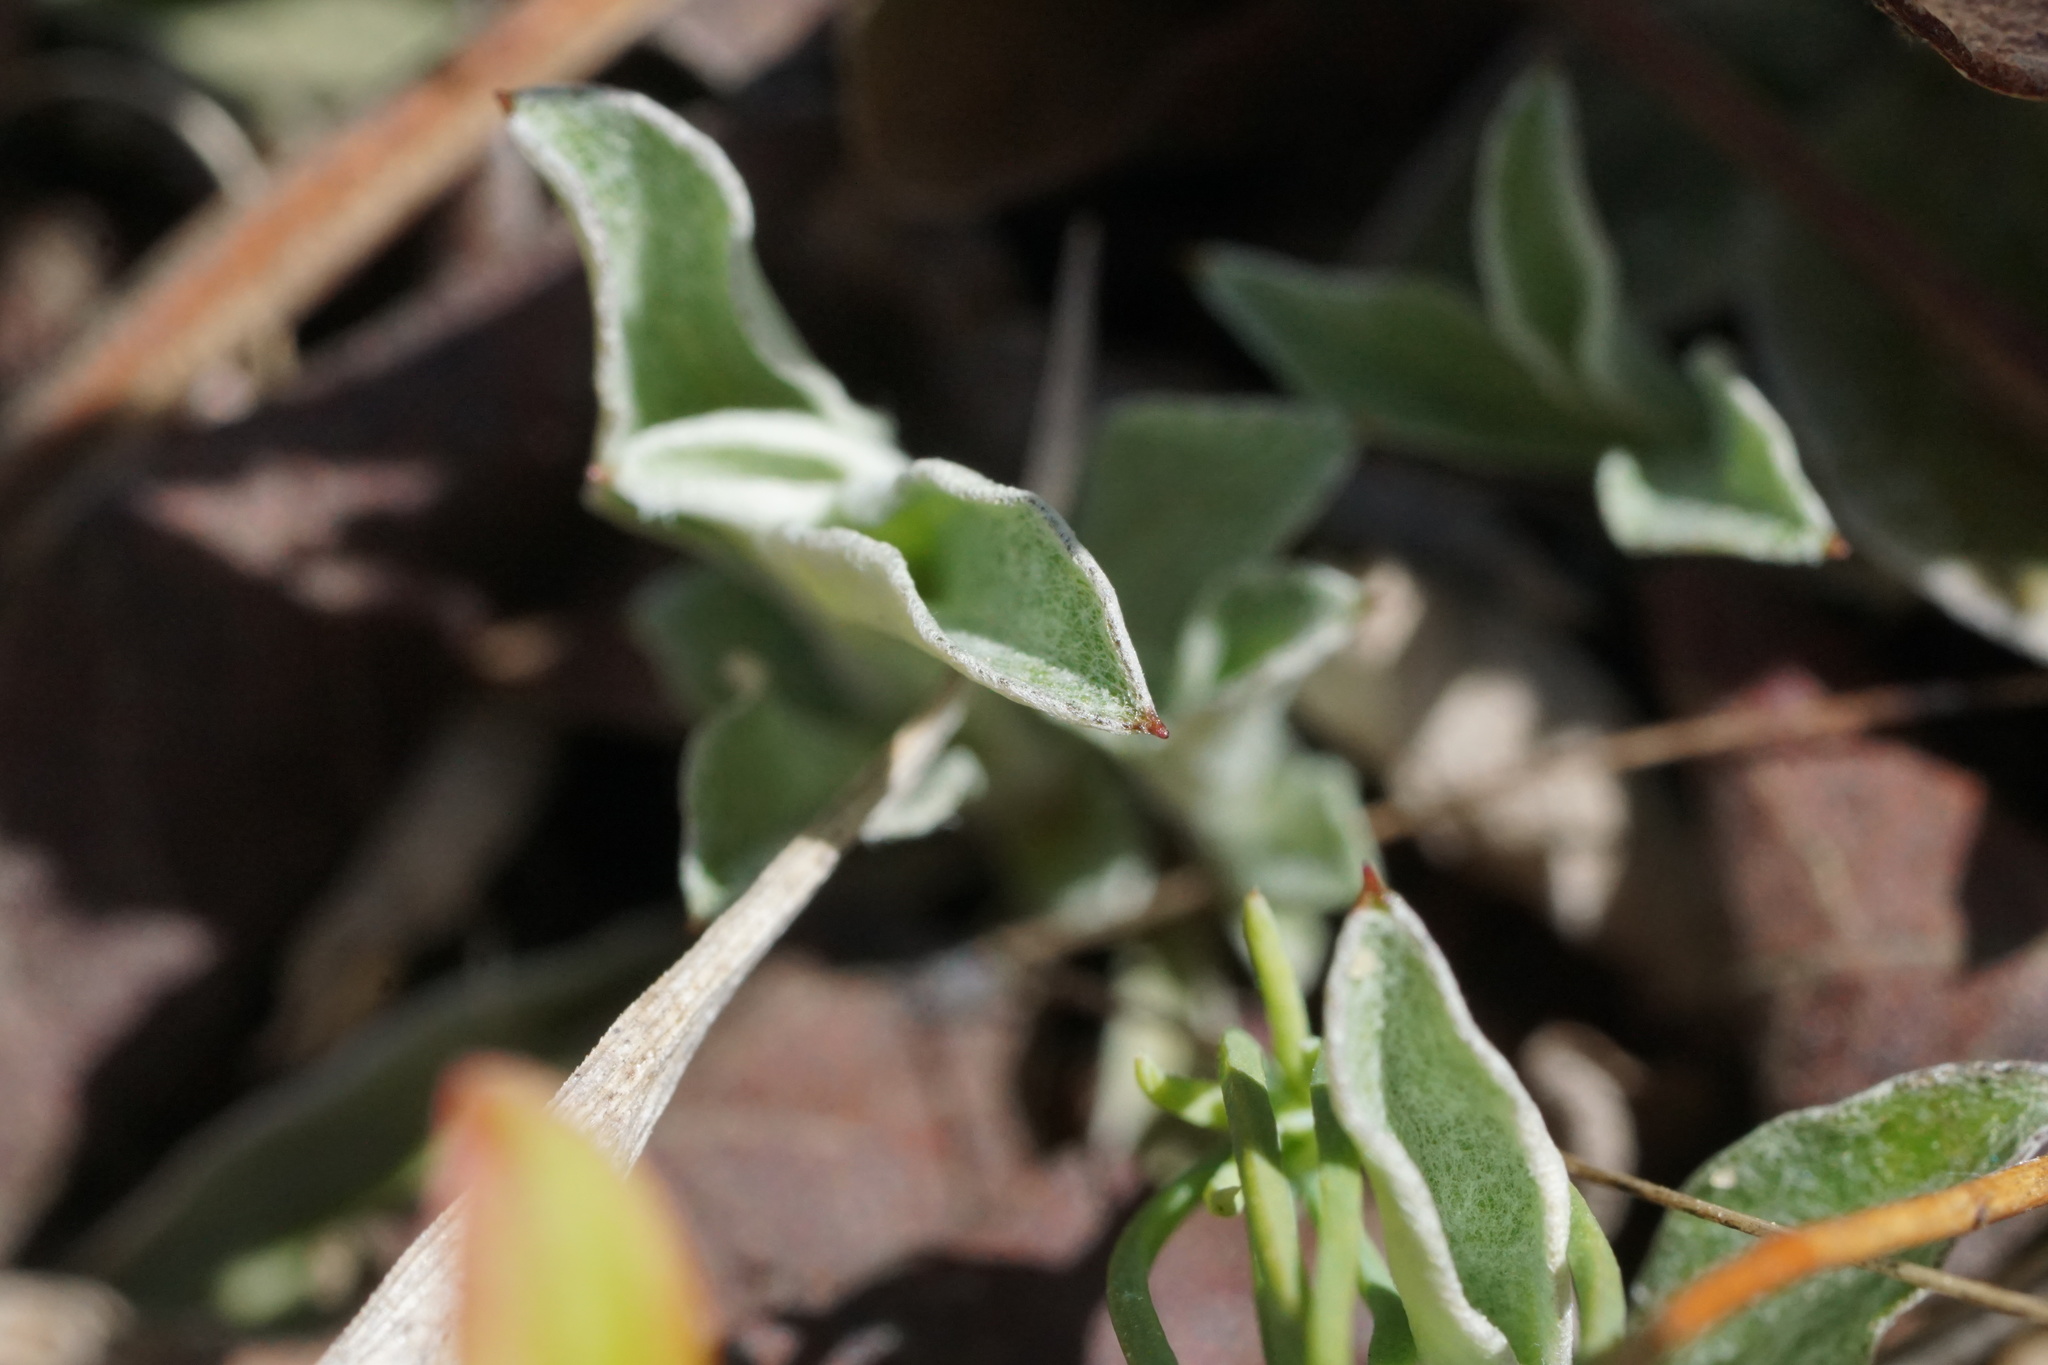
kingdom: Plantae
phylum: Tracheophyta
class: Magnoliopsida
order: Asterales
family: Asteraceae
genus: Antennaria
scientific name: Antennaria neglecta
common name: Field pussytoes
